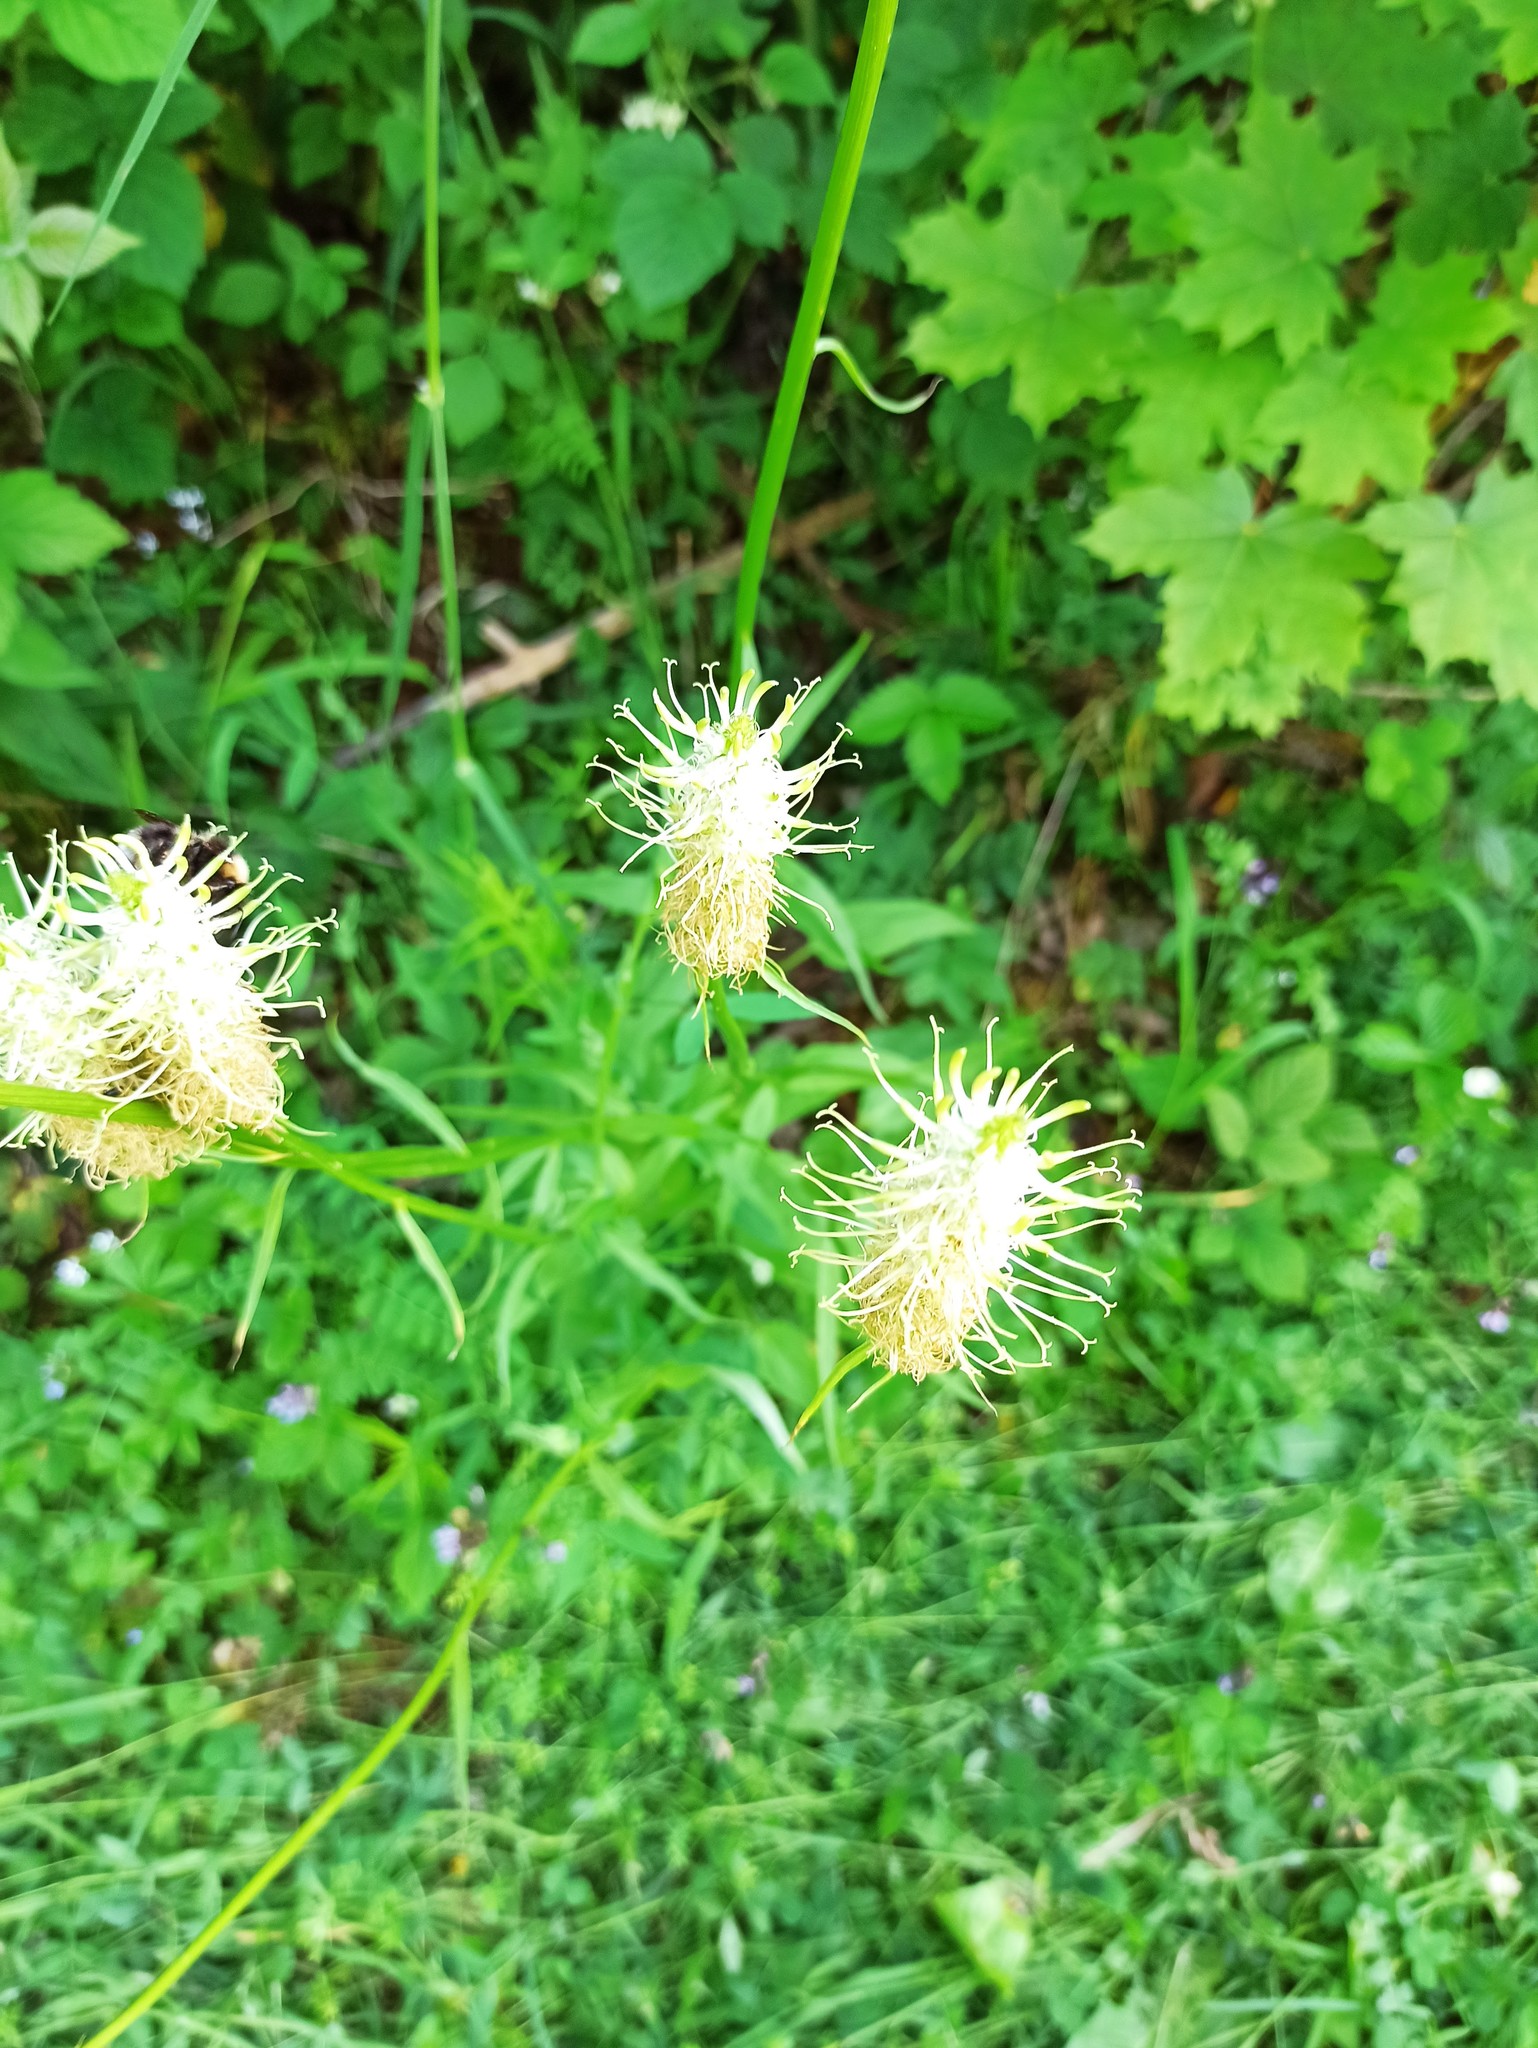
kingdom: Plantae
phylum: Tracheophyta
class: Magnoliopsida
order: Asterales
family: Campanulaceae
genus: Phyteuma
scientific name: Phyteuma spicatum
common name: Spiked rampion
